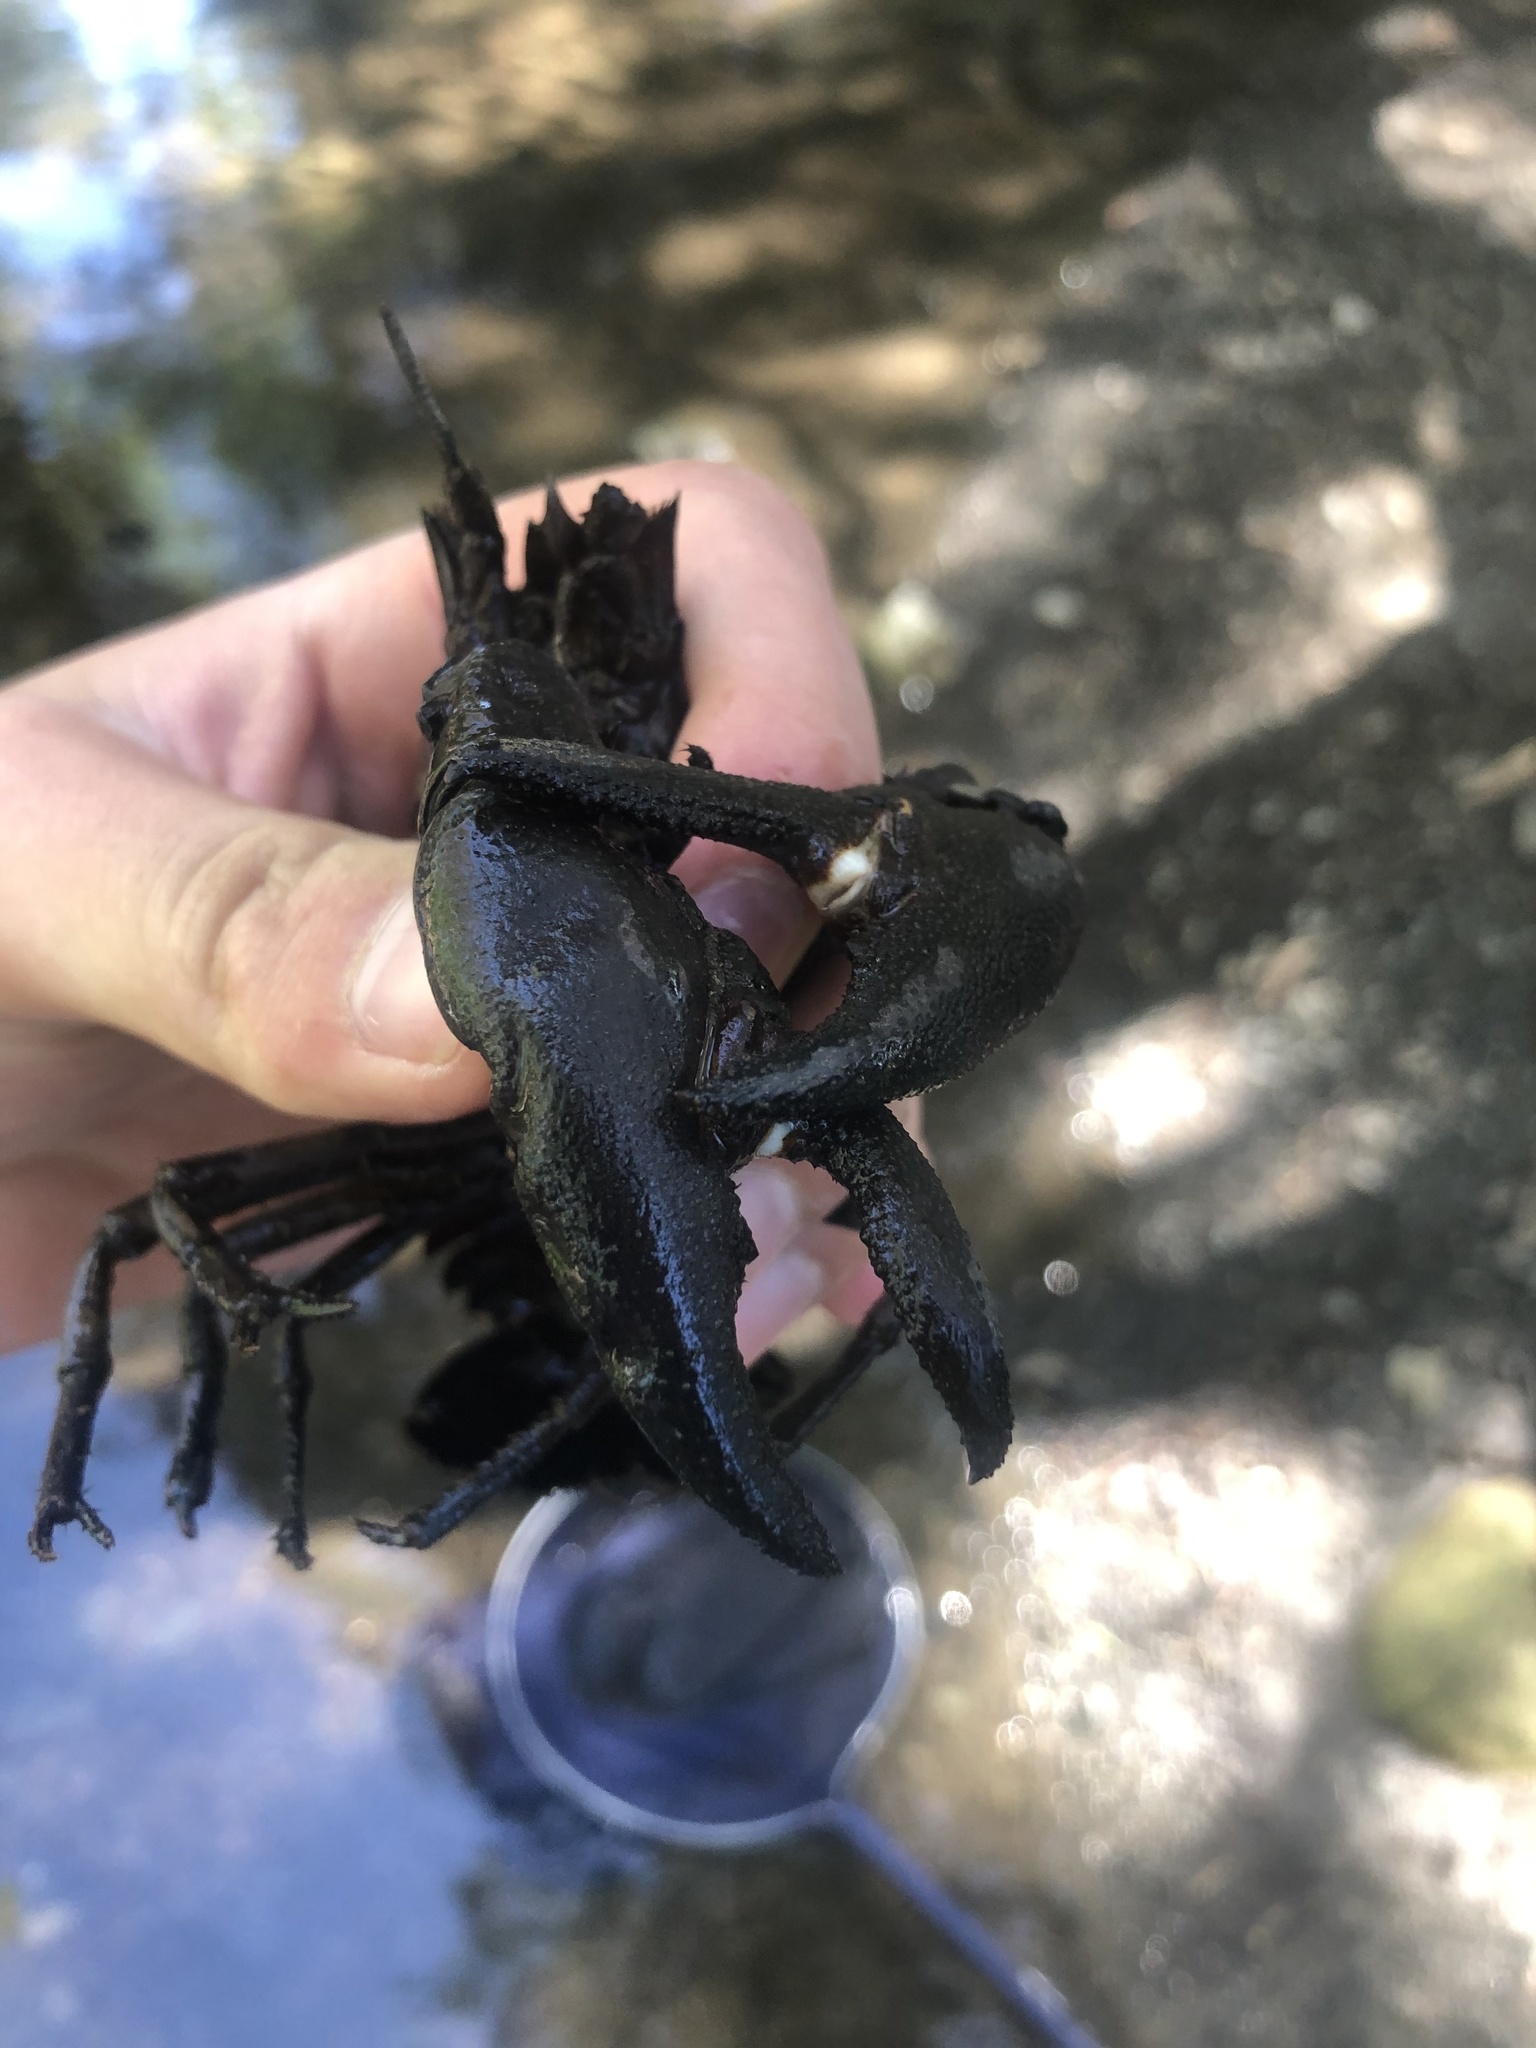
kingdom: Animalia
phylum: Arthropoda
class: Malacostraca
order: Decapoda
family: Astacidae
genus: Pacifastacus
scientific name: Pacifastacus leniusculus
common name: Signal crayfish
